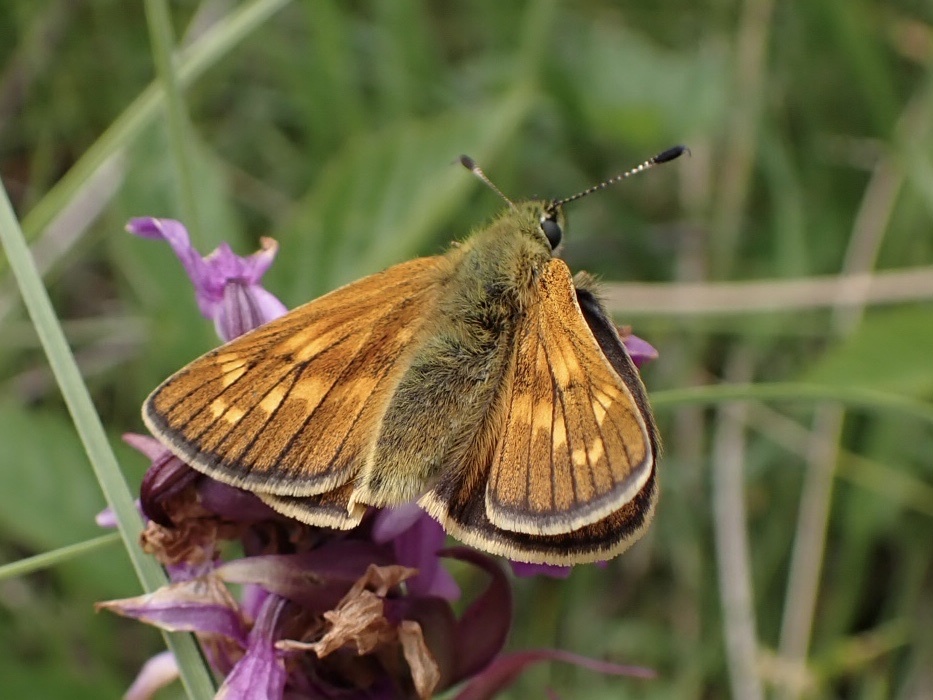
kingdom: Animalia
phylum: Arthropoda
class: Insecta
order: Lepidoptera
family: Hesperiidae
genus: Ochlodes
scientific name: Ochlodes venata
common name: Large skipper
